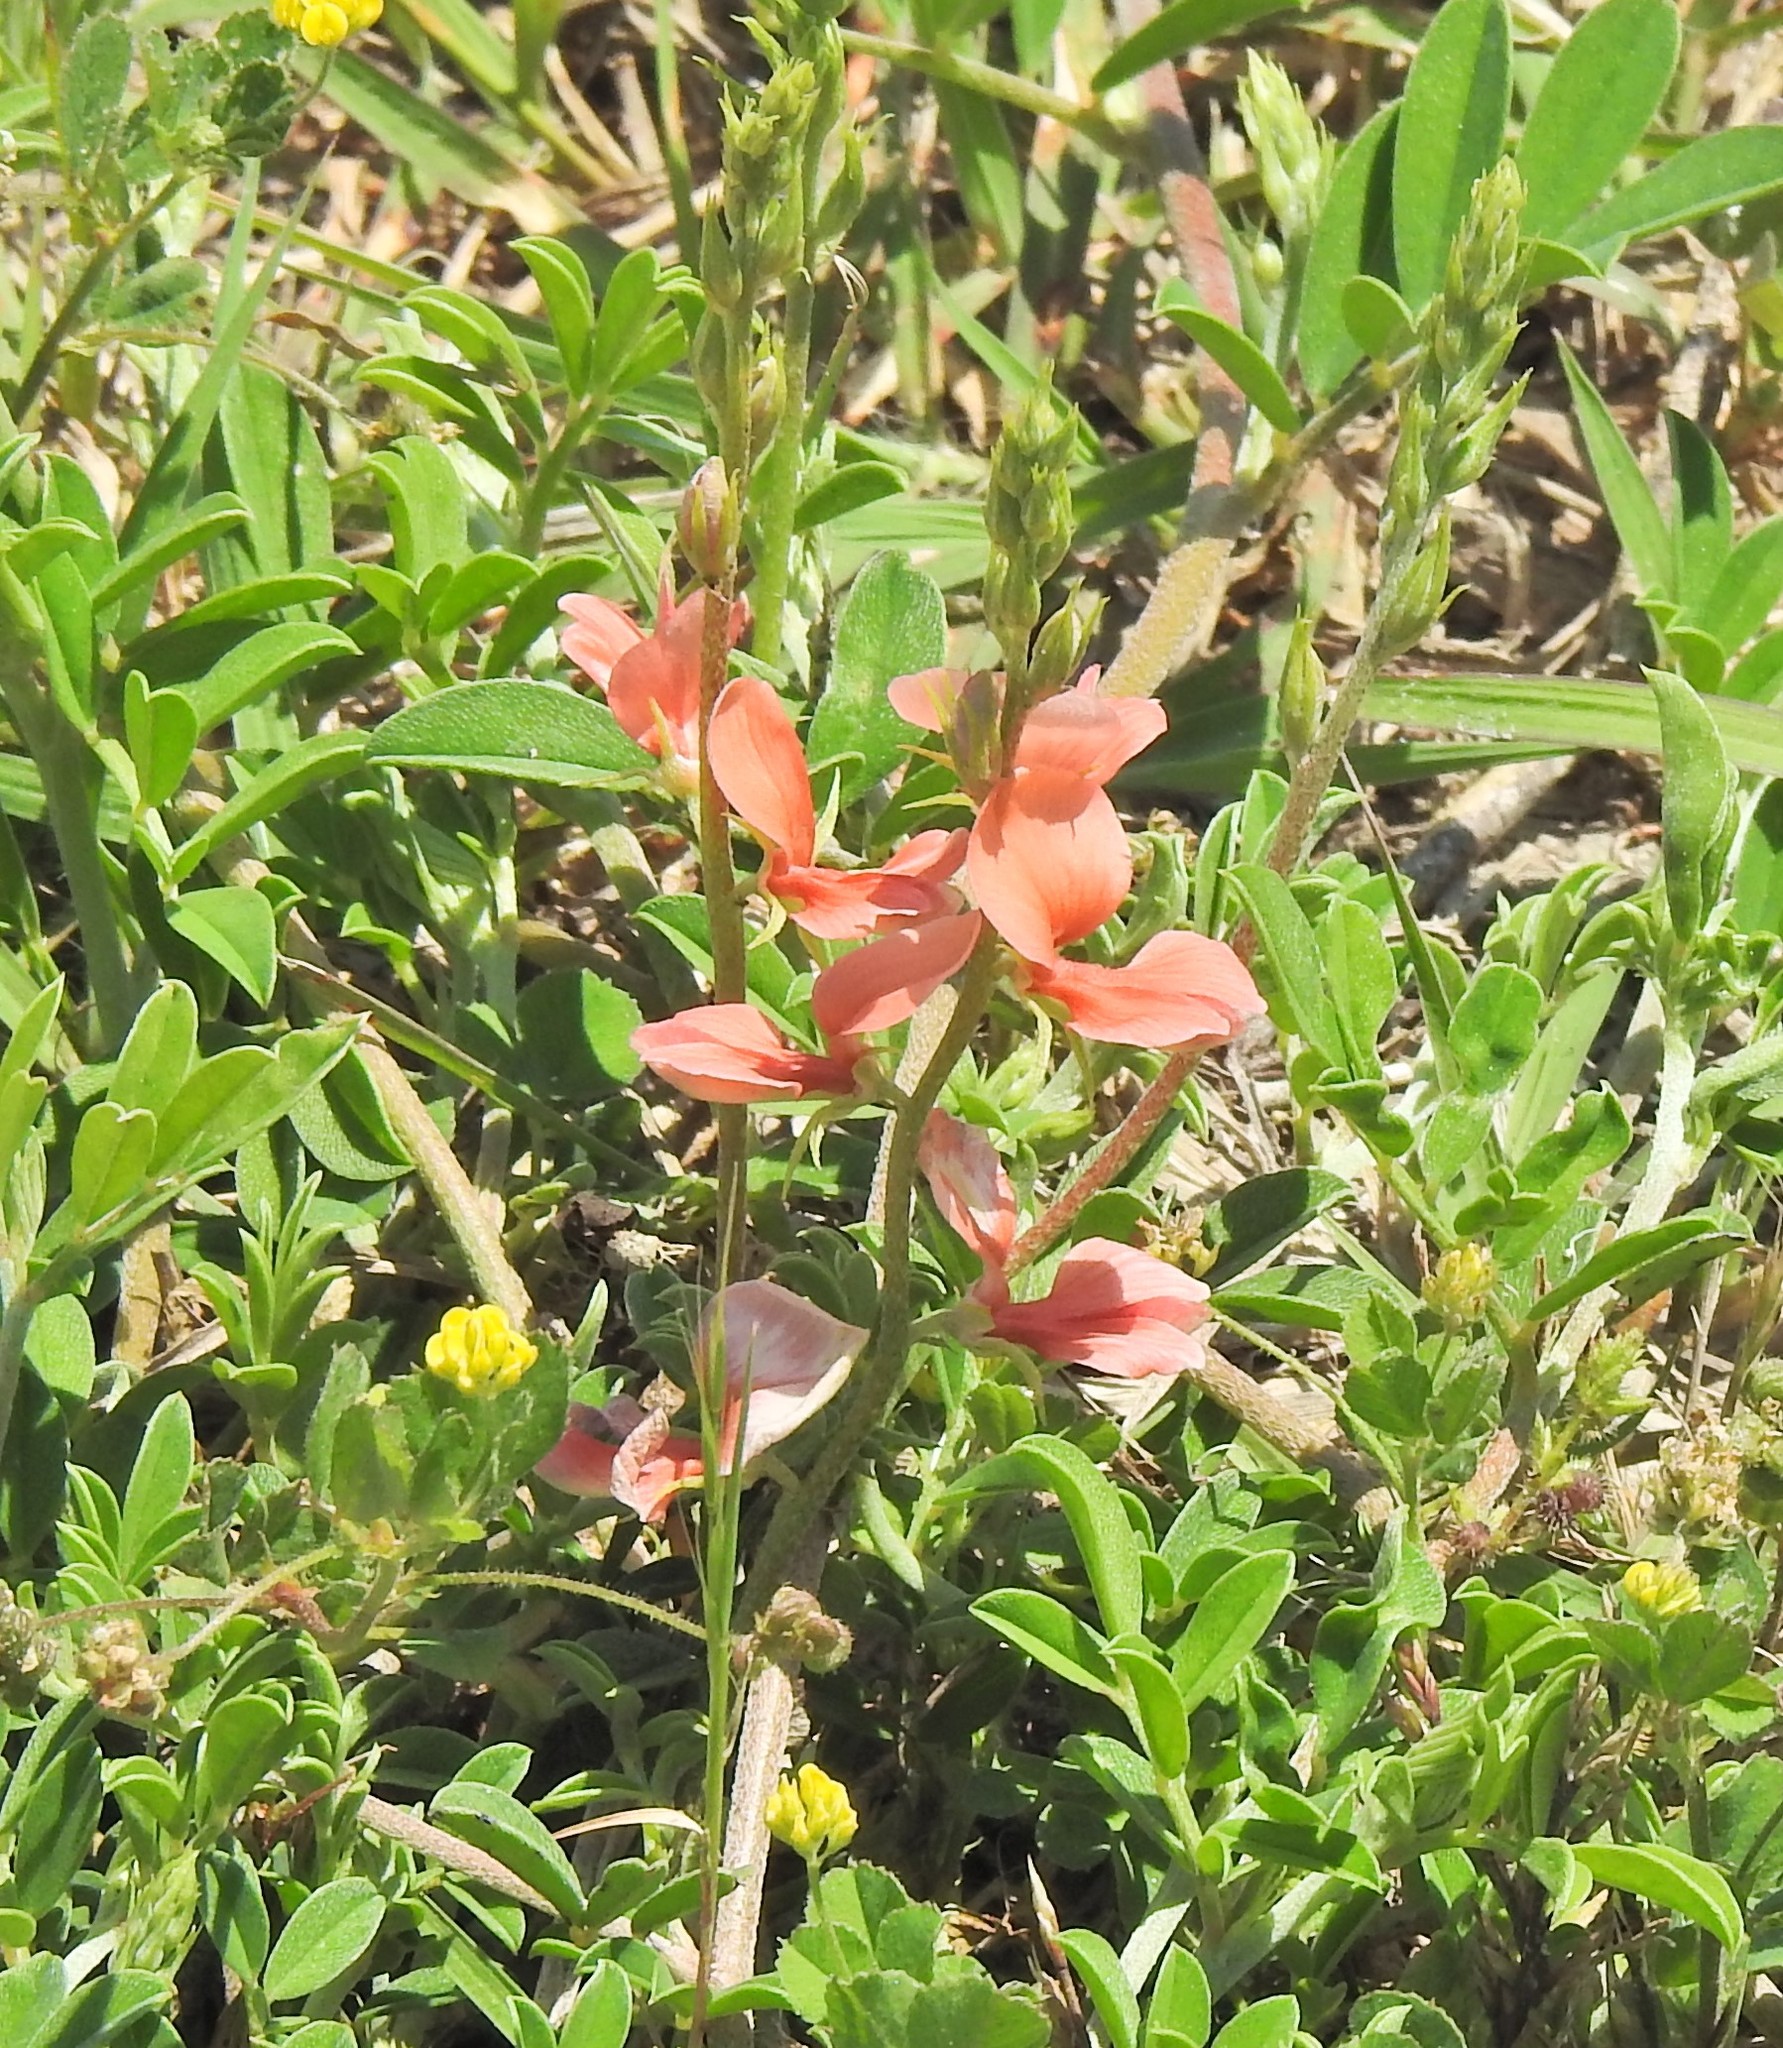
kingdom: Plantae
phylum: Tracheophyta
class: Magnoliopsida
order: Fabales
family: Fabaceae
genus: Indigofera
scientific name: Indigofera miniata
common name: Coast indigo
